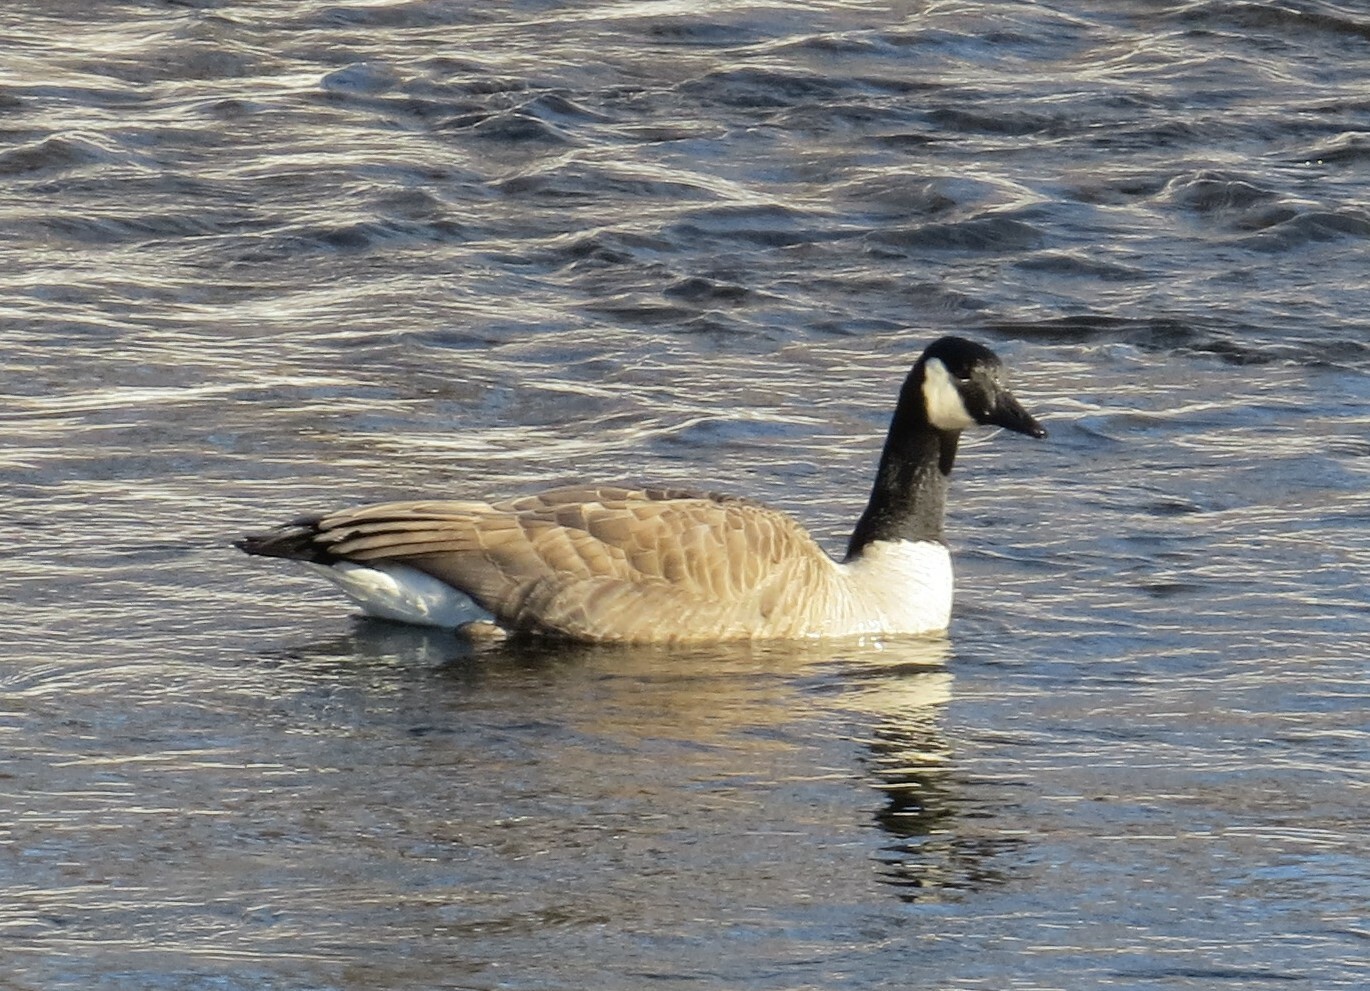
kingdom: Animalia
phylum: Chordata
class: Aves
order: Anseriformes
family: Anatidae
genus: Branta
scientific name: Branta canadensis
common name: Canada goose
